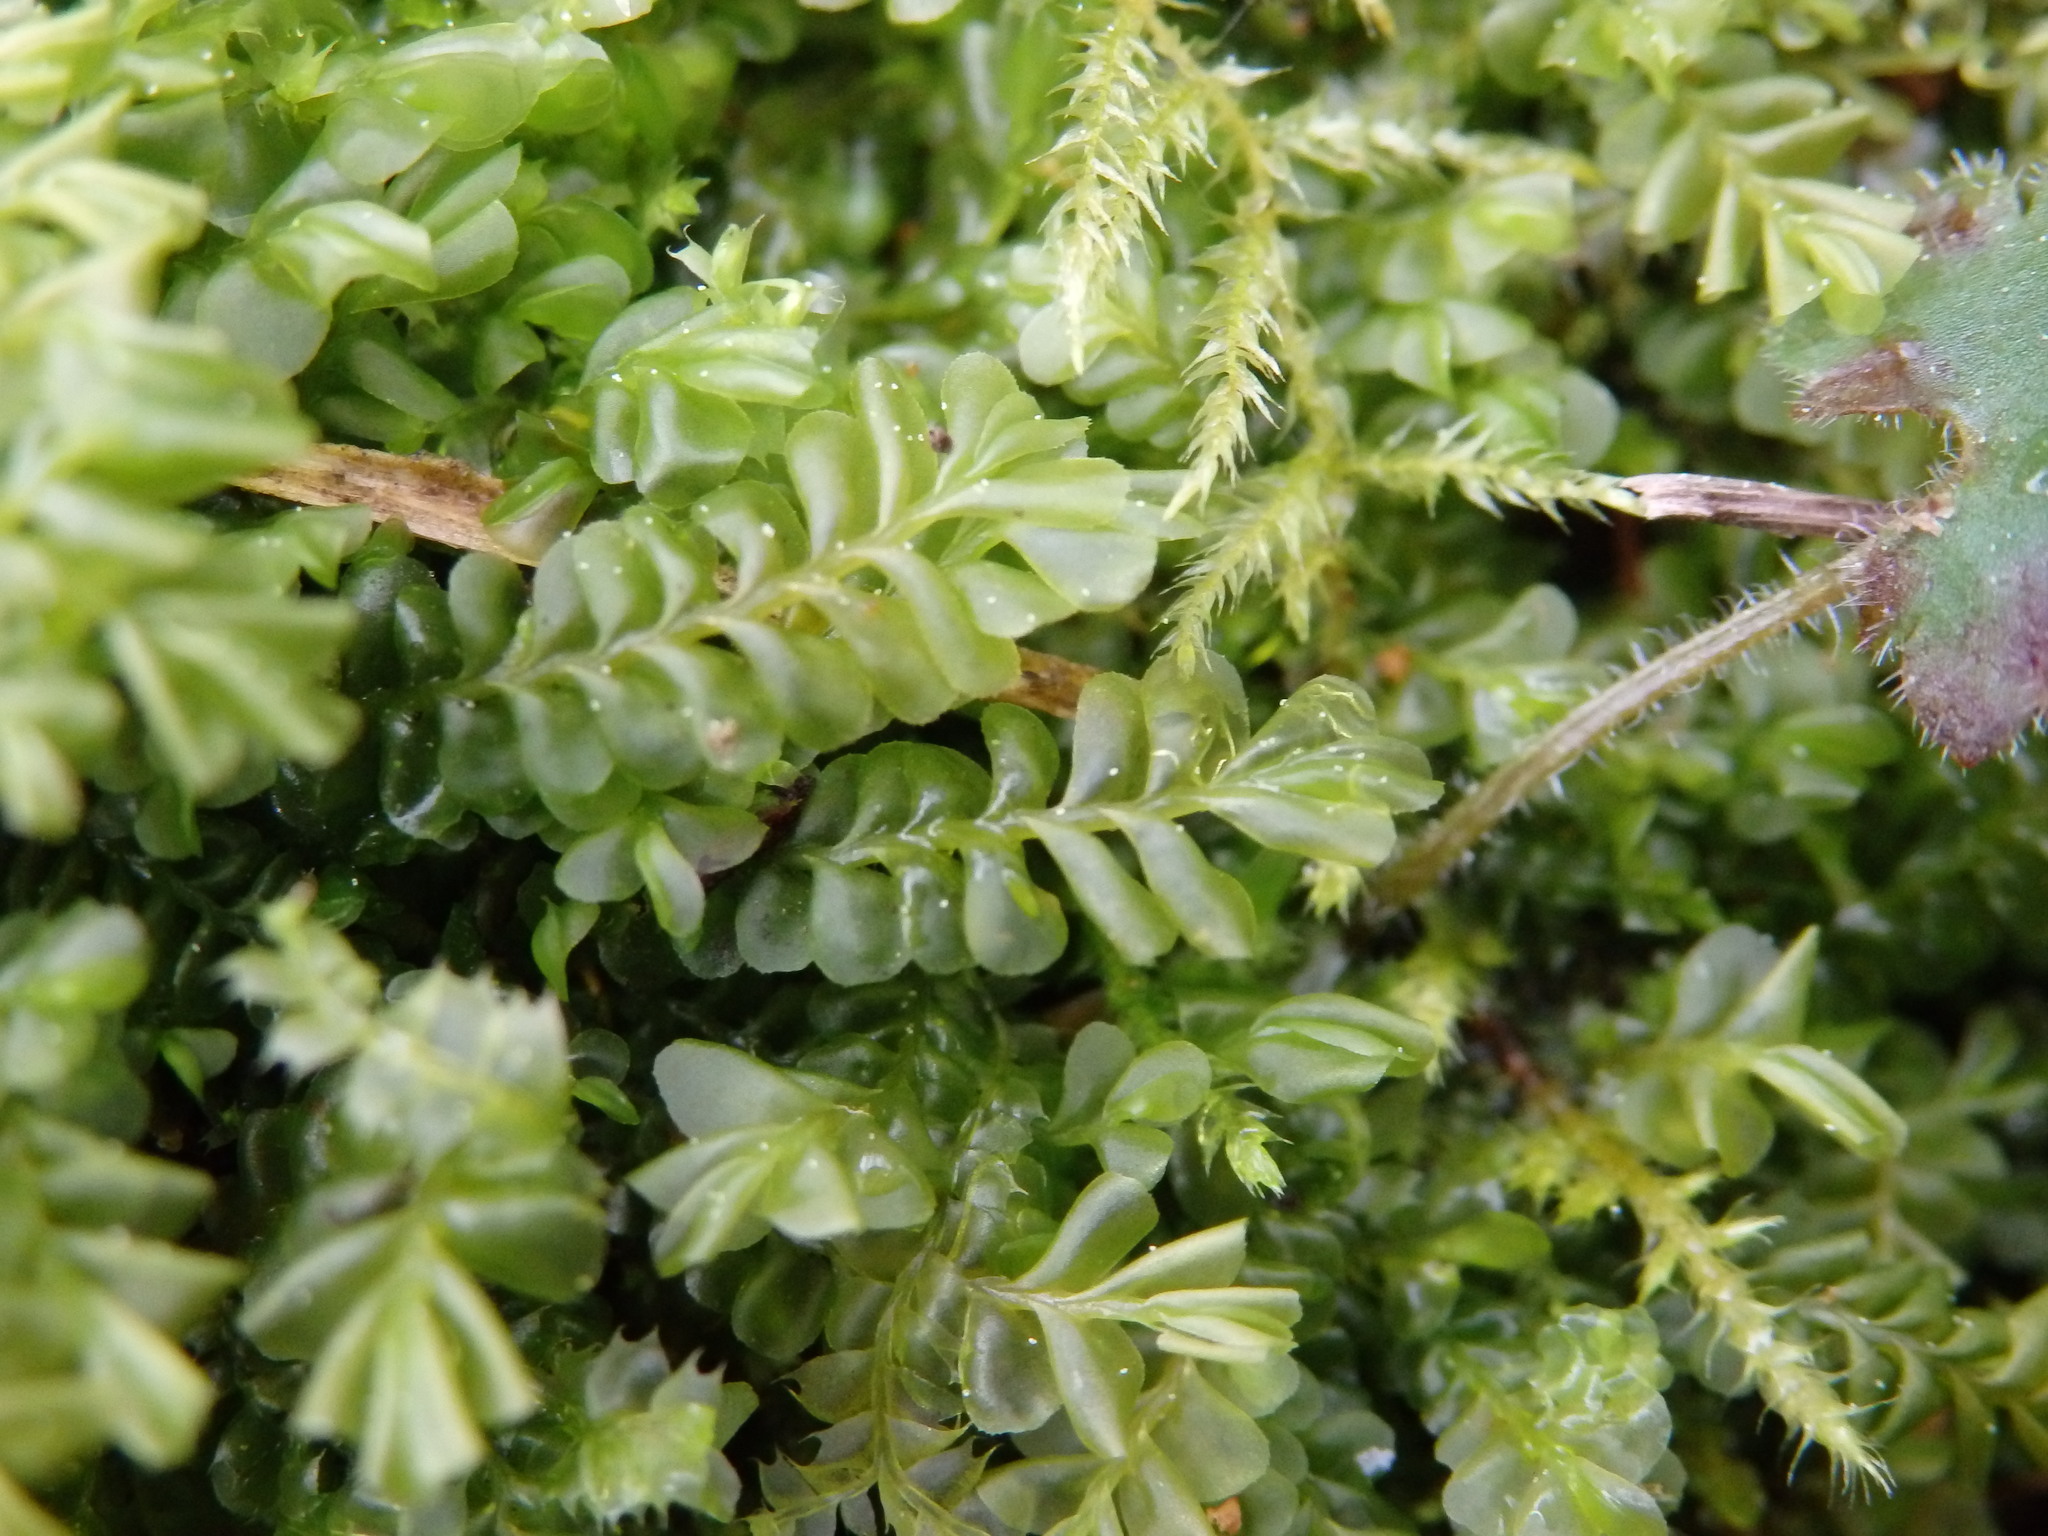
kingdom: Plantae
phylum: Marchantiophyta
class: Jungermanniopsida
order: Jungermanniales
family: Plagiochilaceae
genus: Plagiochila
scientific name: Plagiochila porelloides
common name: Lesser featherwort
